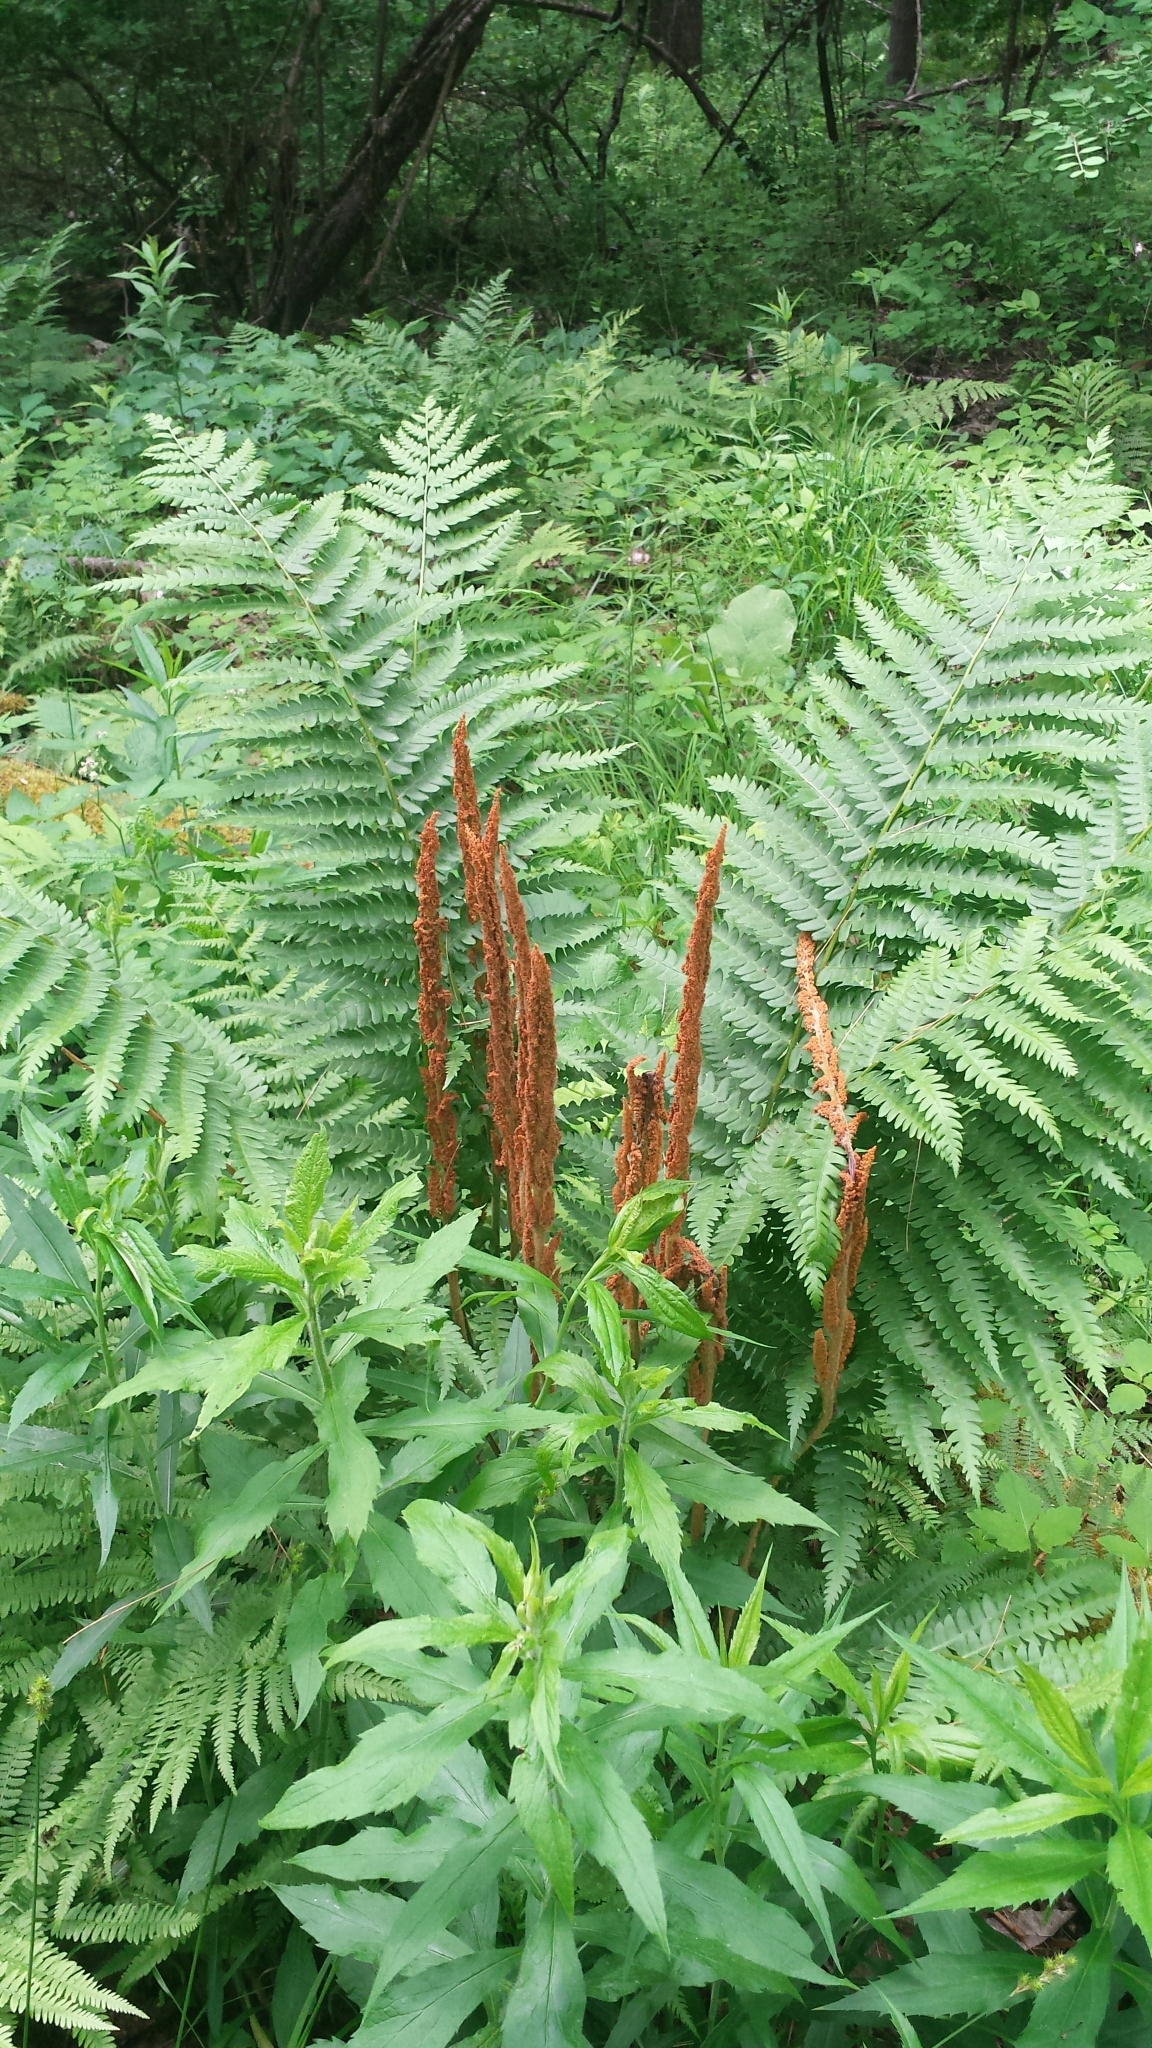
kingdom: Plantae
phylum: Tracheophyta
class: Polypodiopsida
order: Osmundales
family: Osmundaceae
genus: Osmundastrum
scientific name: Osmundastrum cinnamomeum
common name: Cinnamon fern
